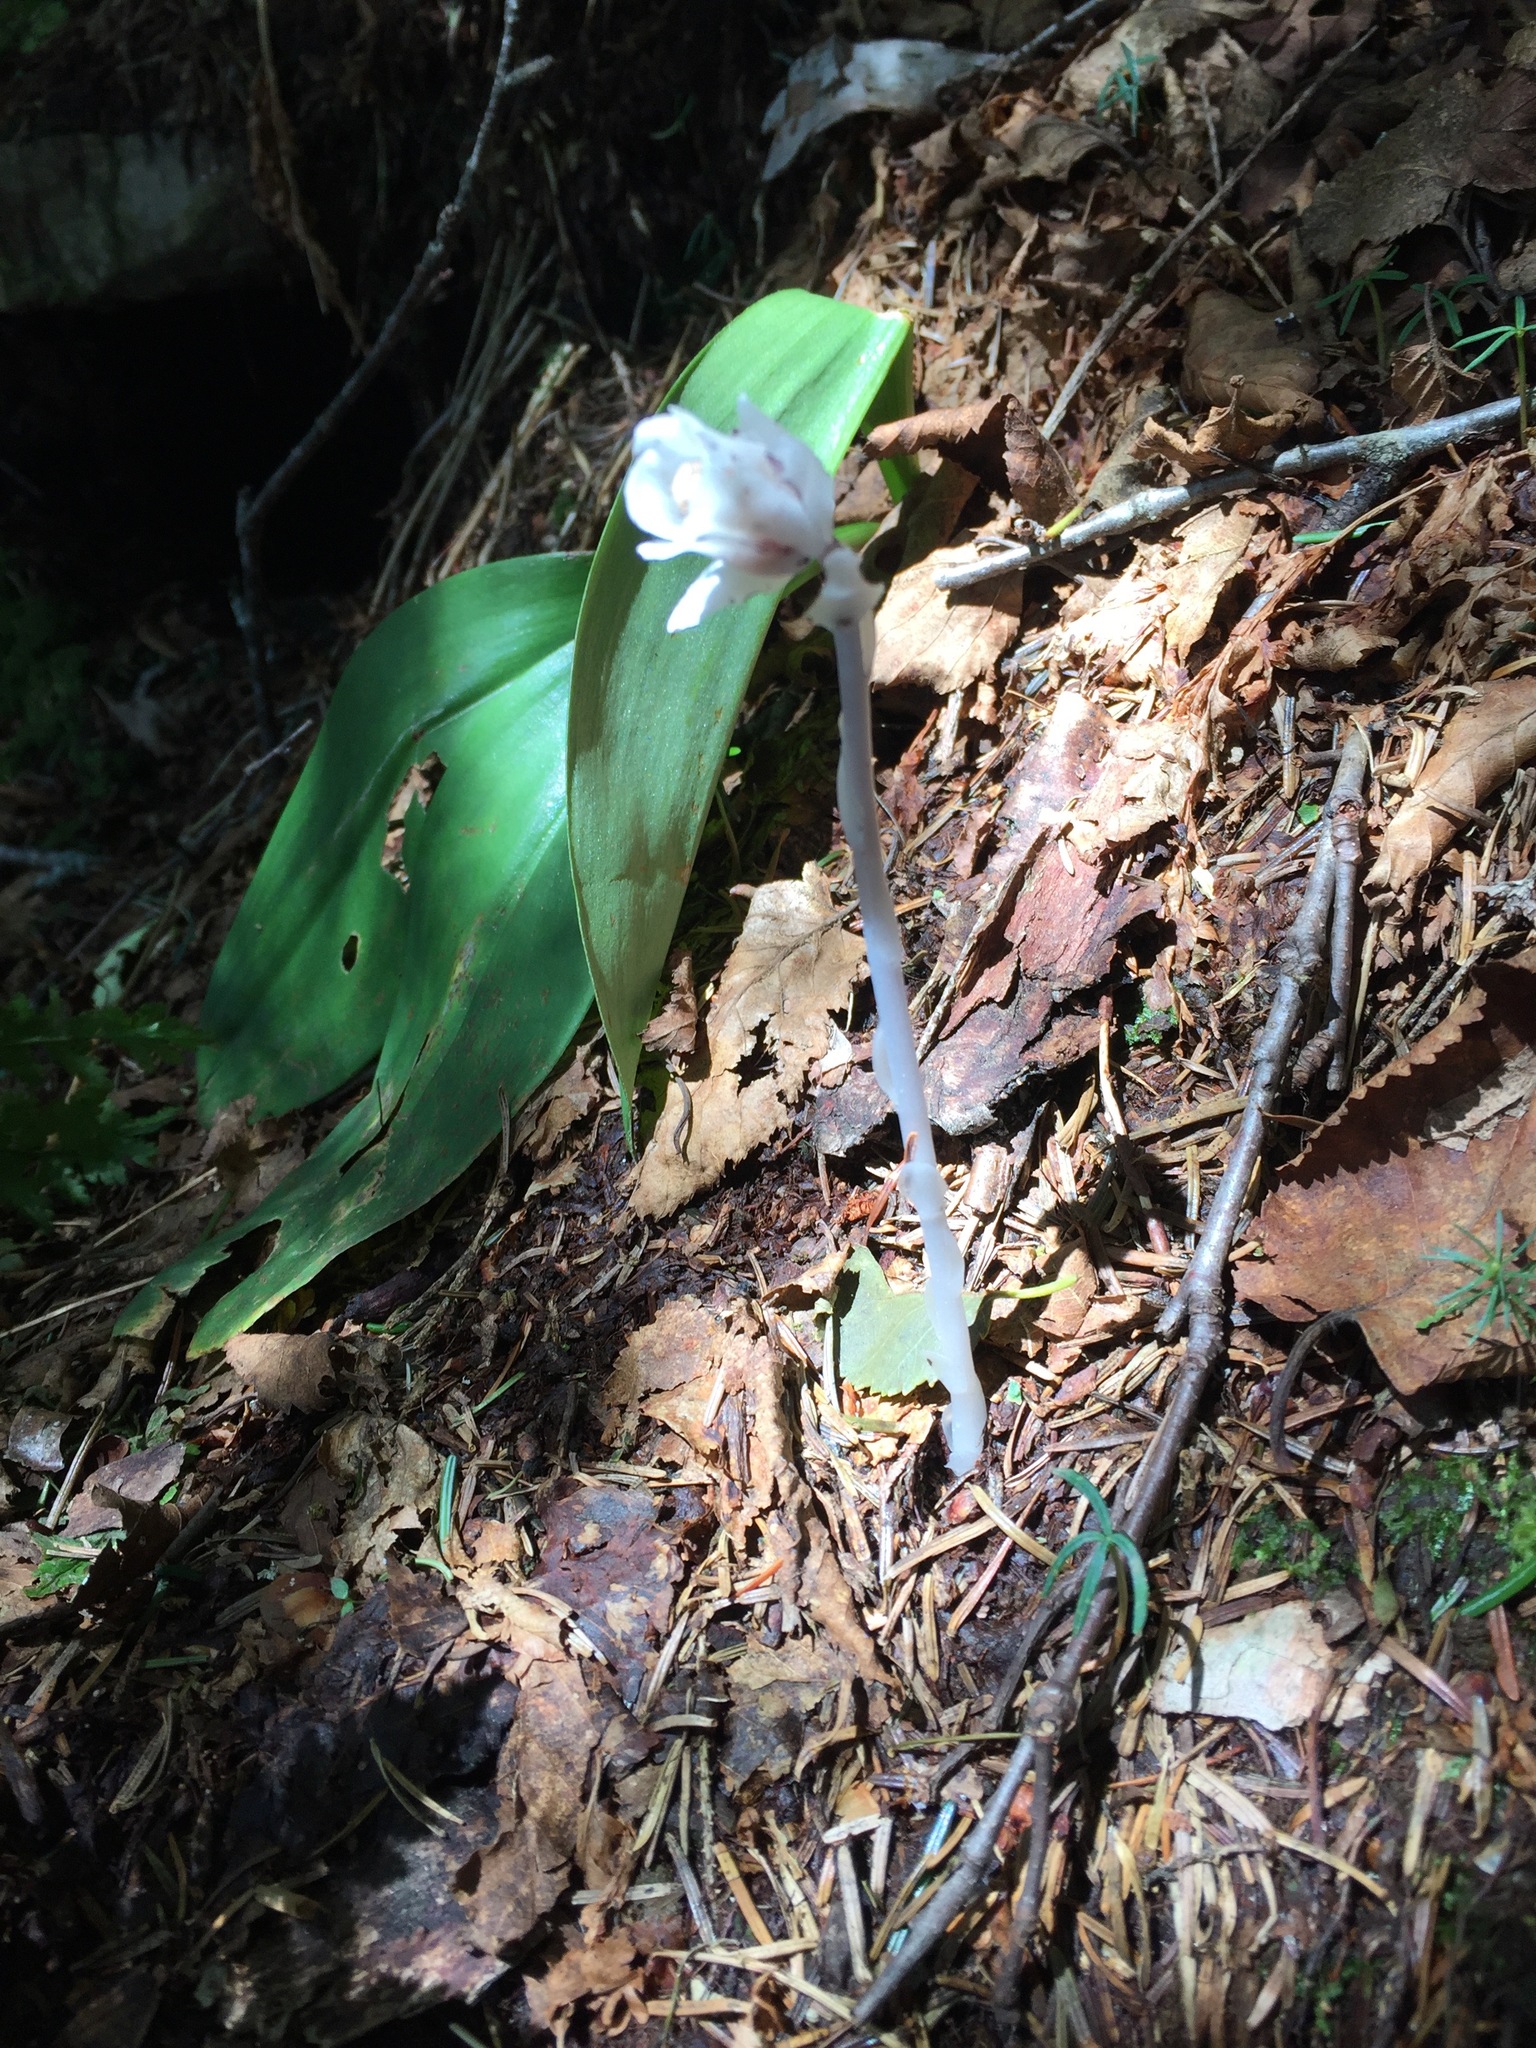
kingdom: Plantae
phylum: Tracheophyta
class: Magnoliopsida
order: Ericales
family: Ericaceae
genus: Monotropa
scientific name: Monotropa uniflora
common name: Convulsion root
